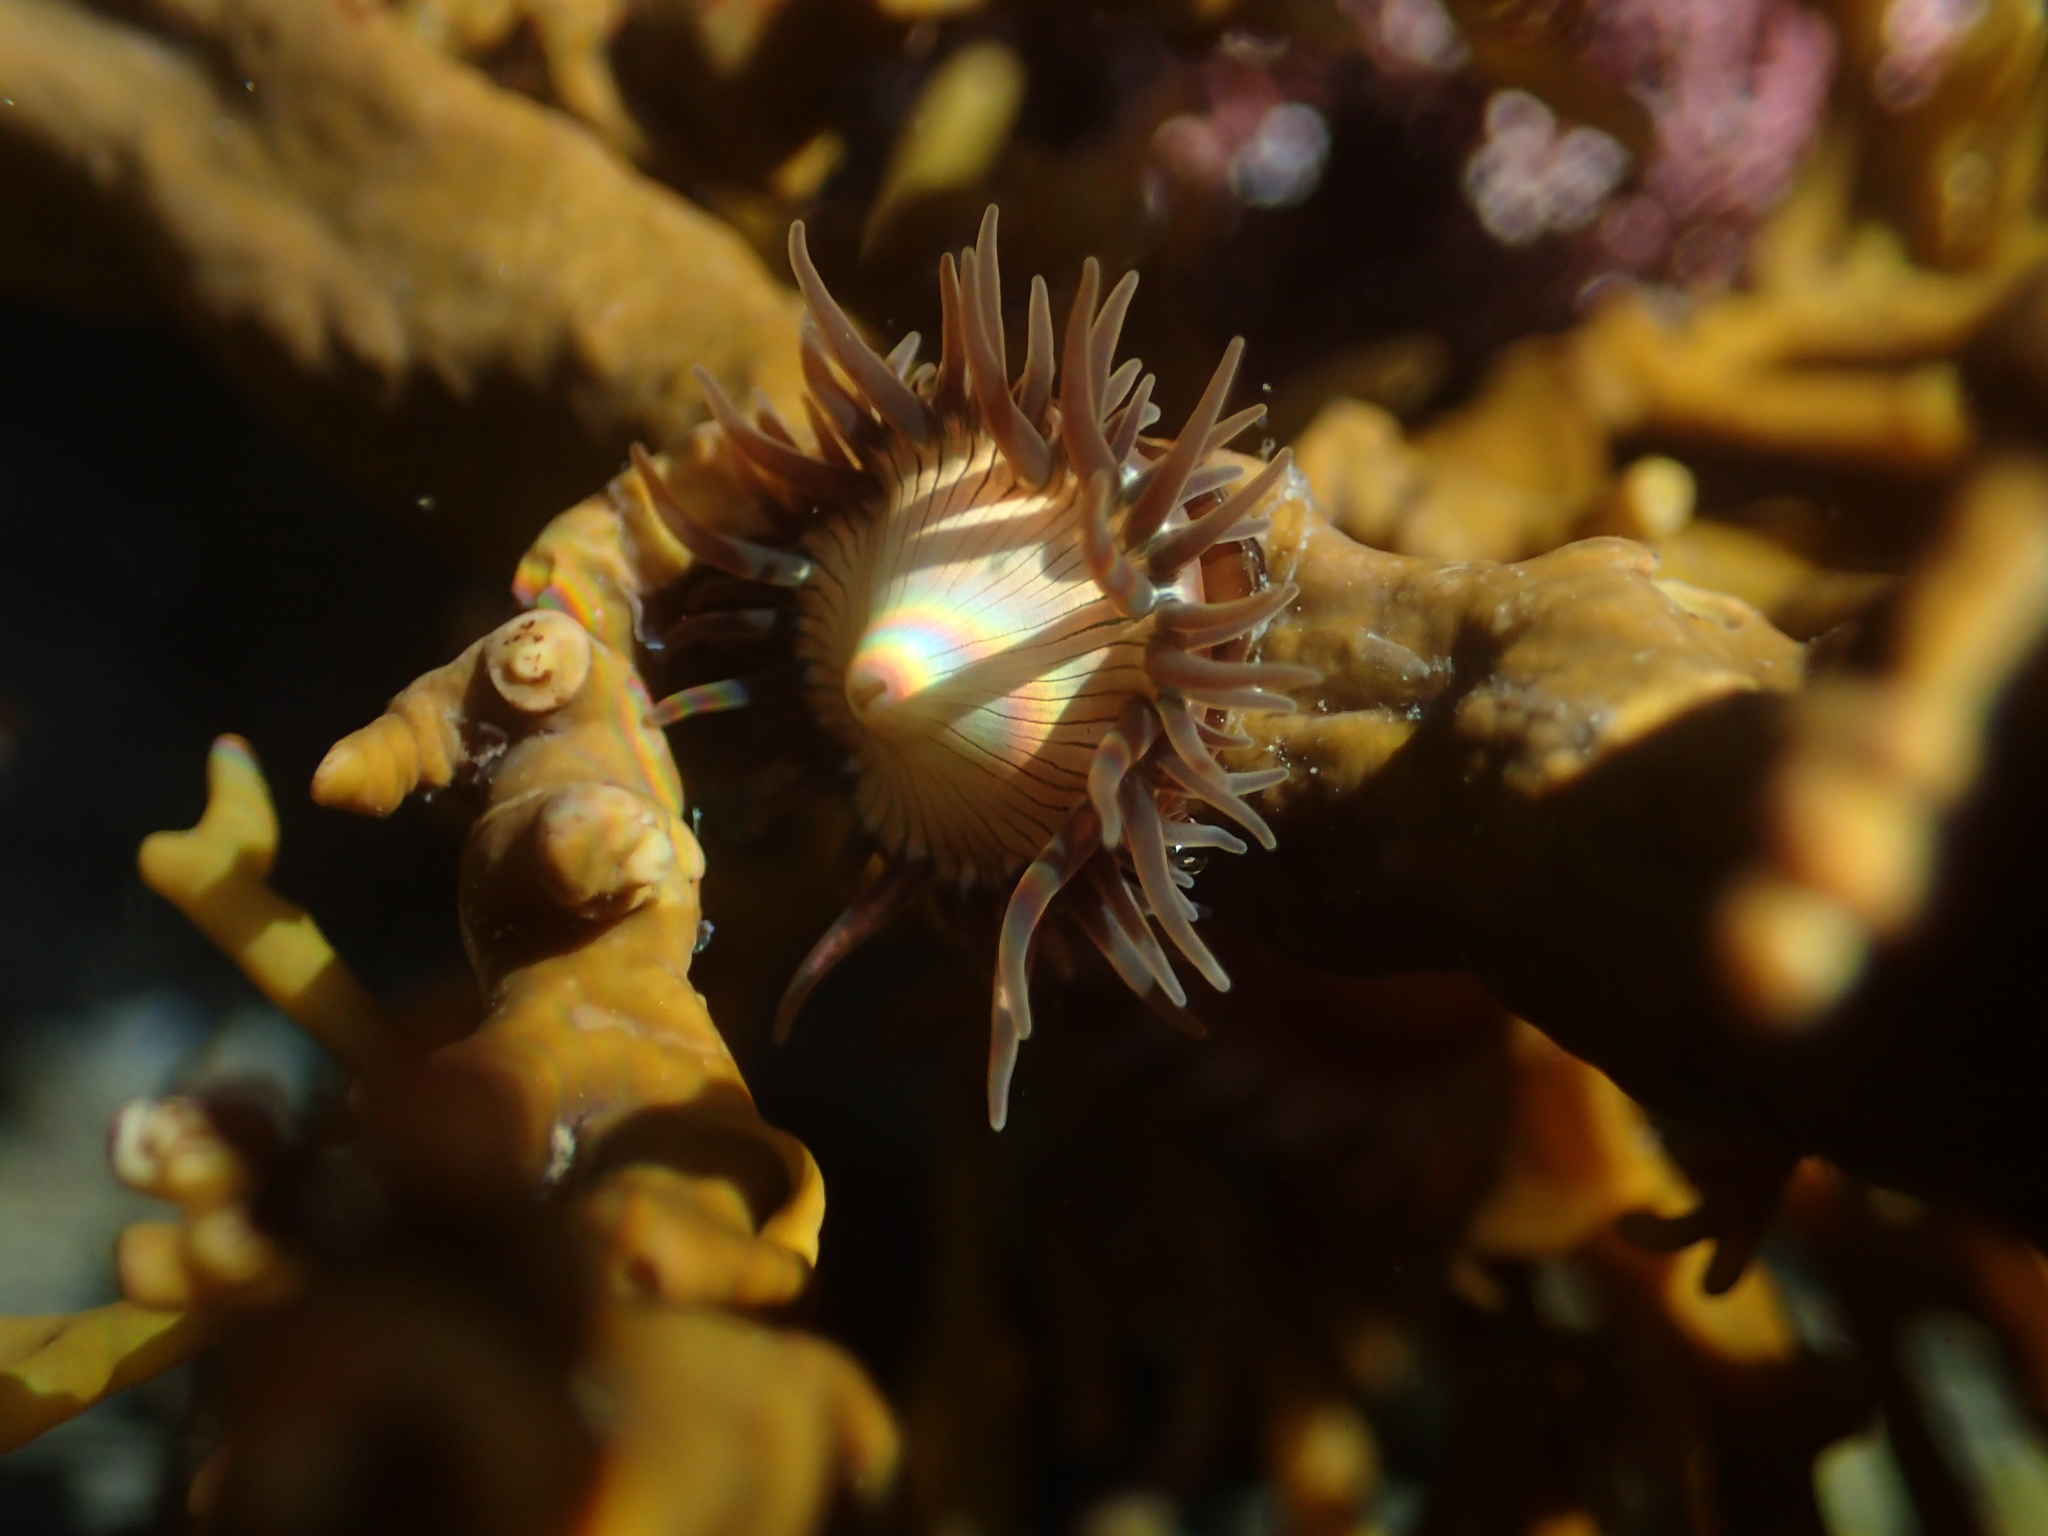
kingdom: Animalia
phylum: Cnidaria
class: Anthozoa
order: Actiniaria
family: Hormathiidae
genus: Handactis
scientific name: Handactis nutrix
